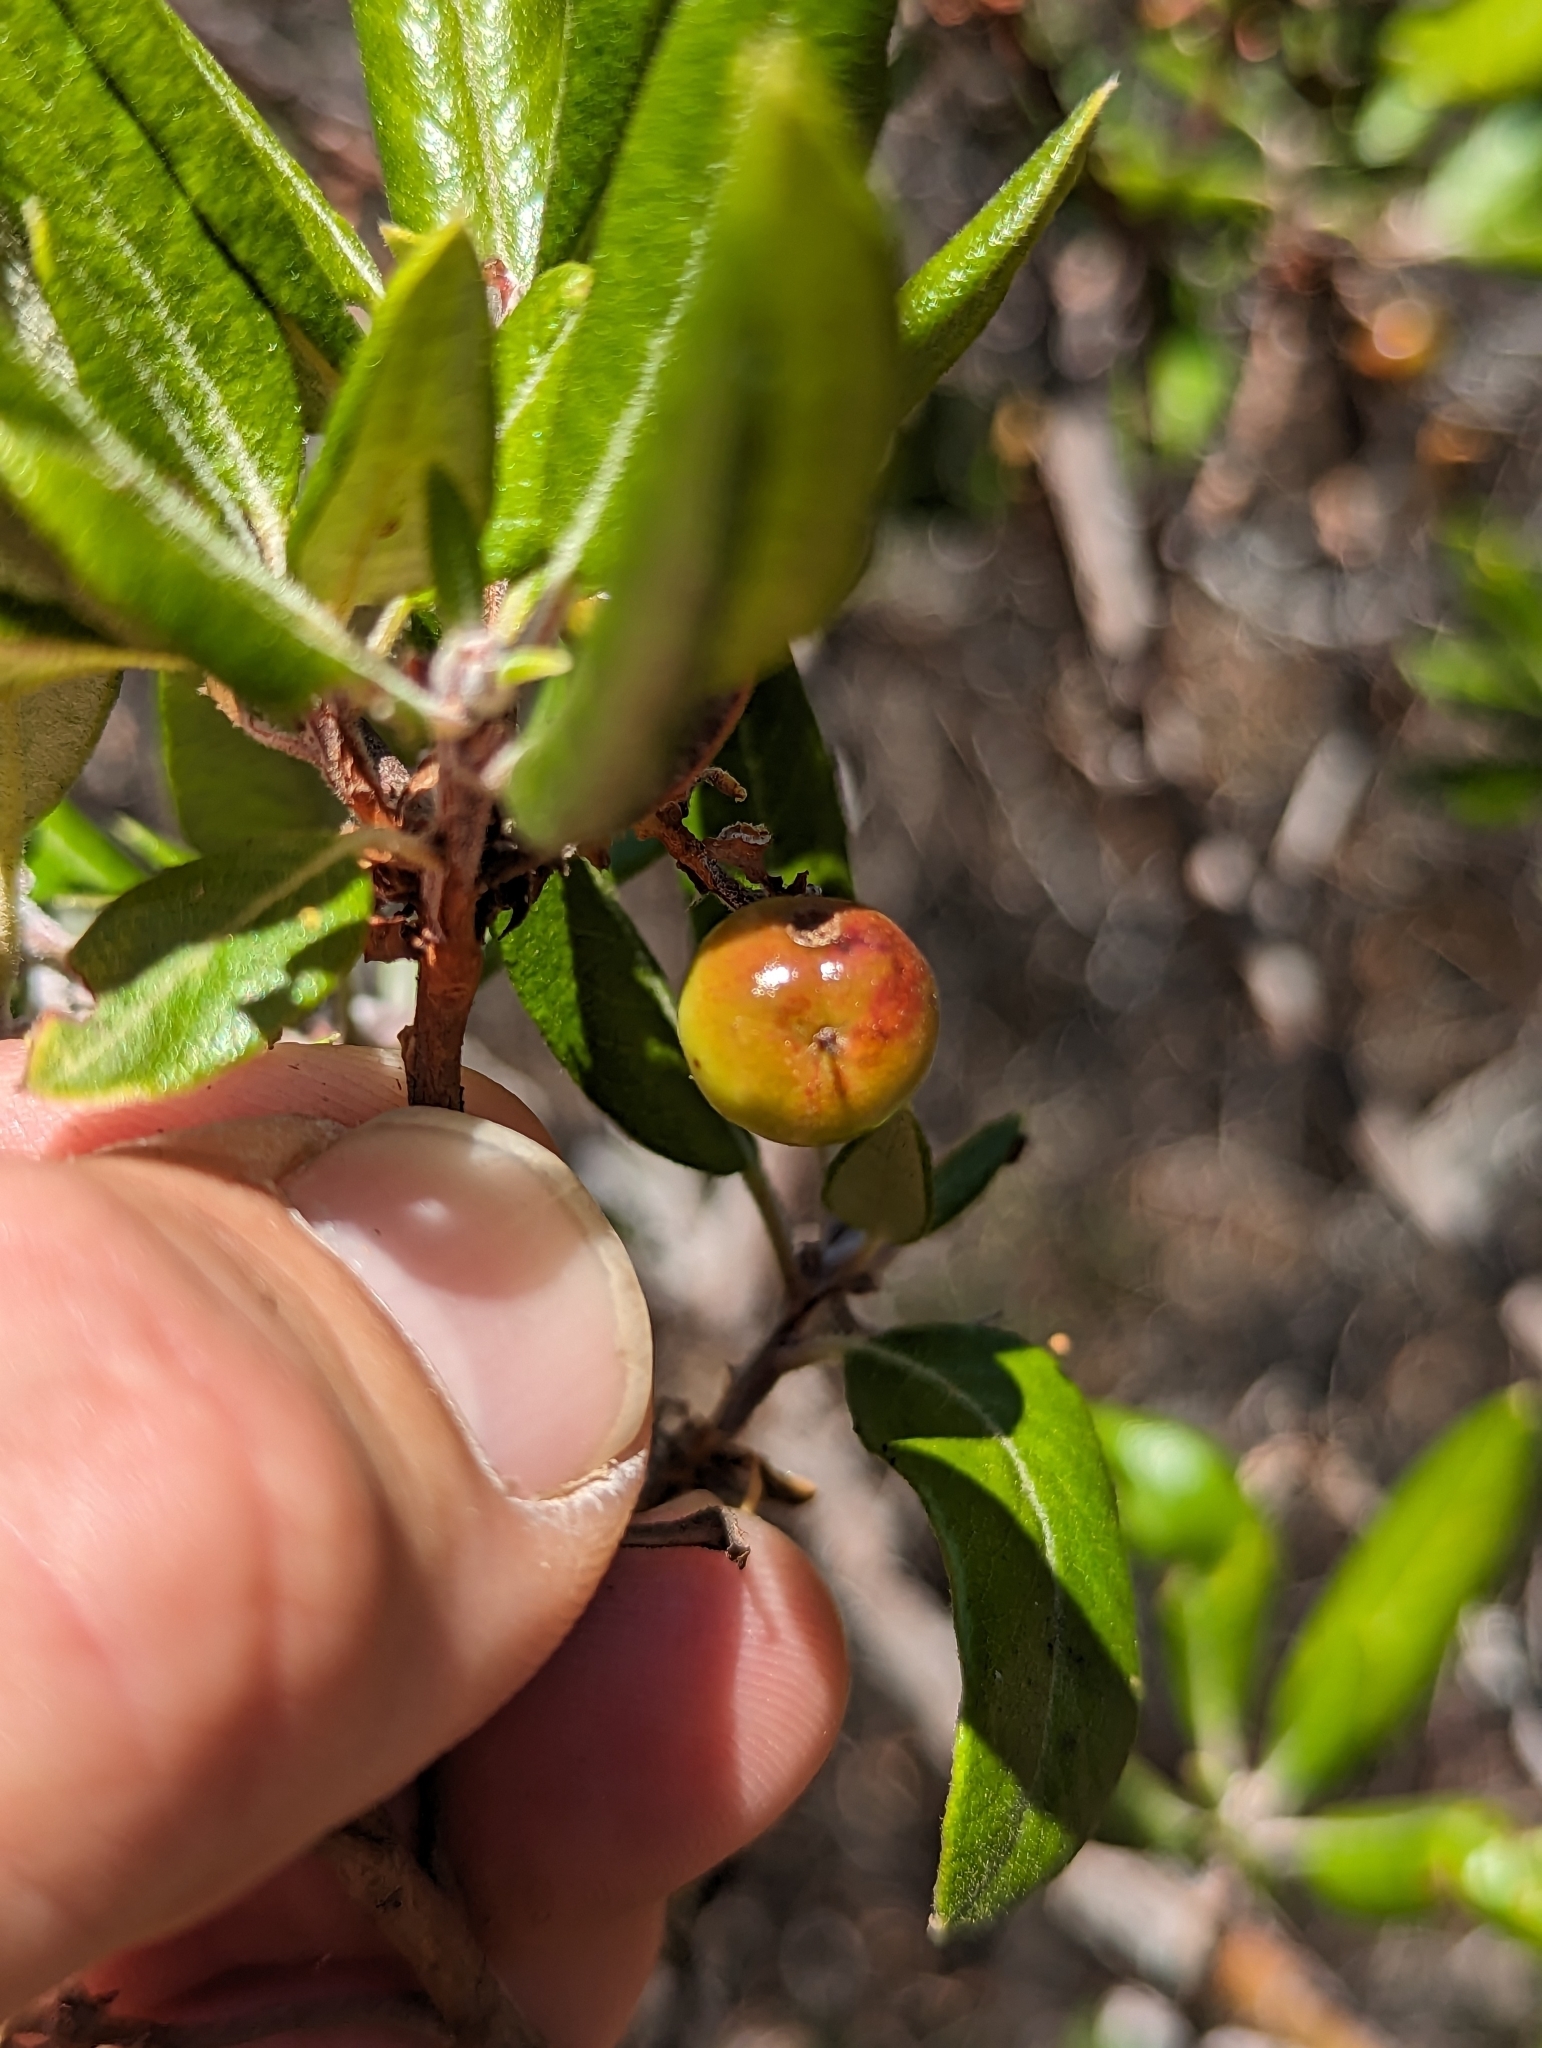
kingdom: Plantae
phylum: Tracheophyta
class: Magnoliopsida
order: Ericales
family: Ericaceae
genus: Arctostaphylos
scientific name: Arctostaphylos bicolor
